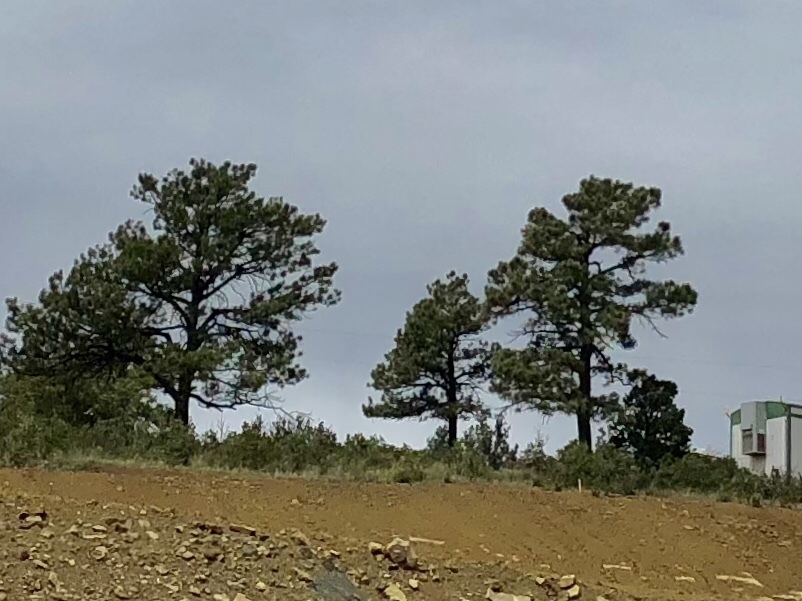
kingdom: Plantae
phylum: Tracheophyta
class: Pinopsida
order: Pinales
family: Pinaceae
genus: Pinus
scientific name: Pinus ponderosa
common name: Western yellow-pine
